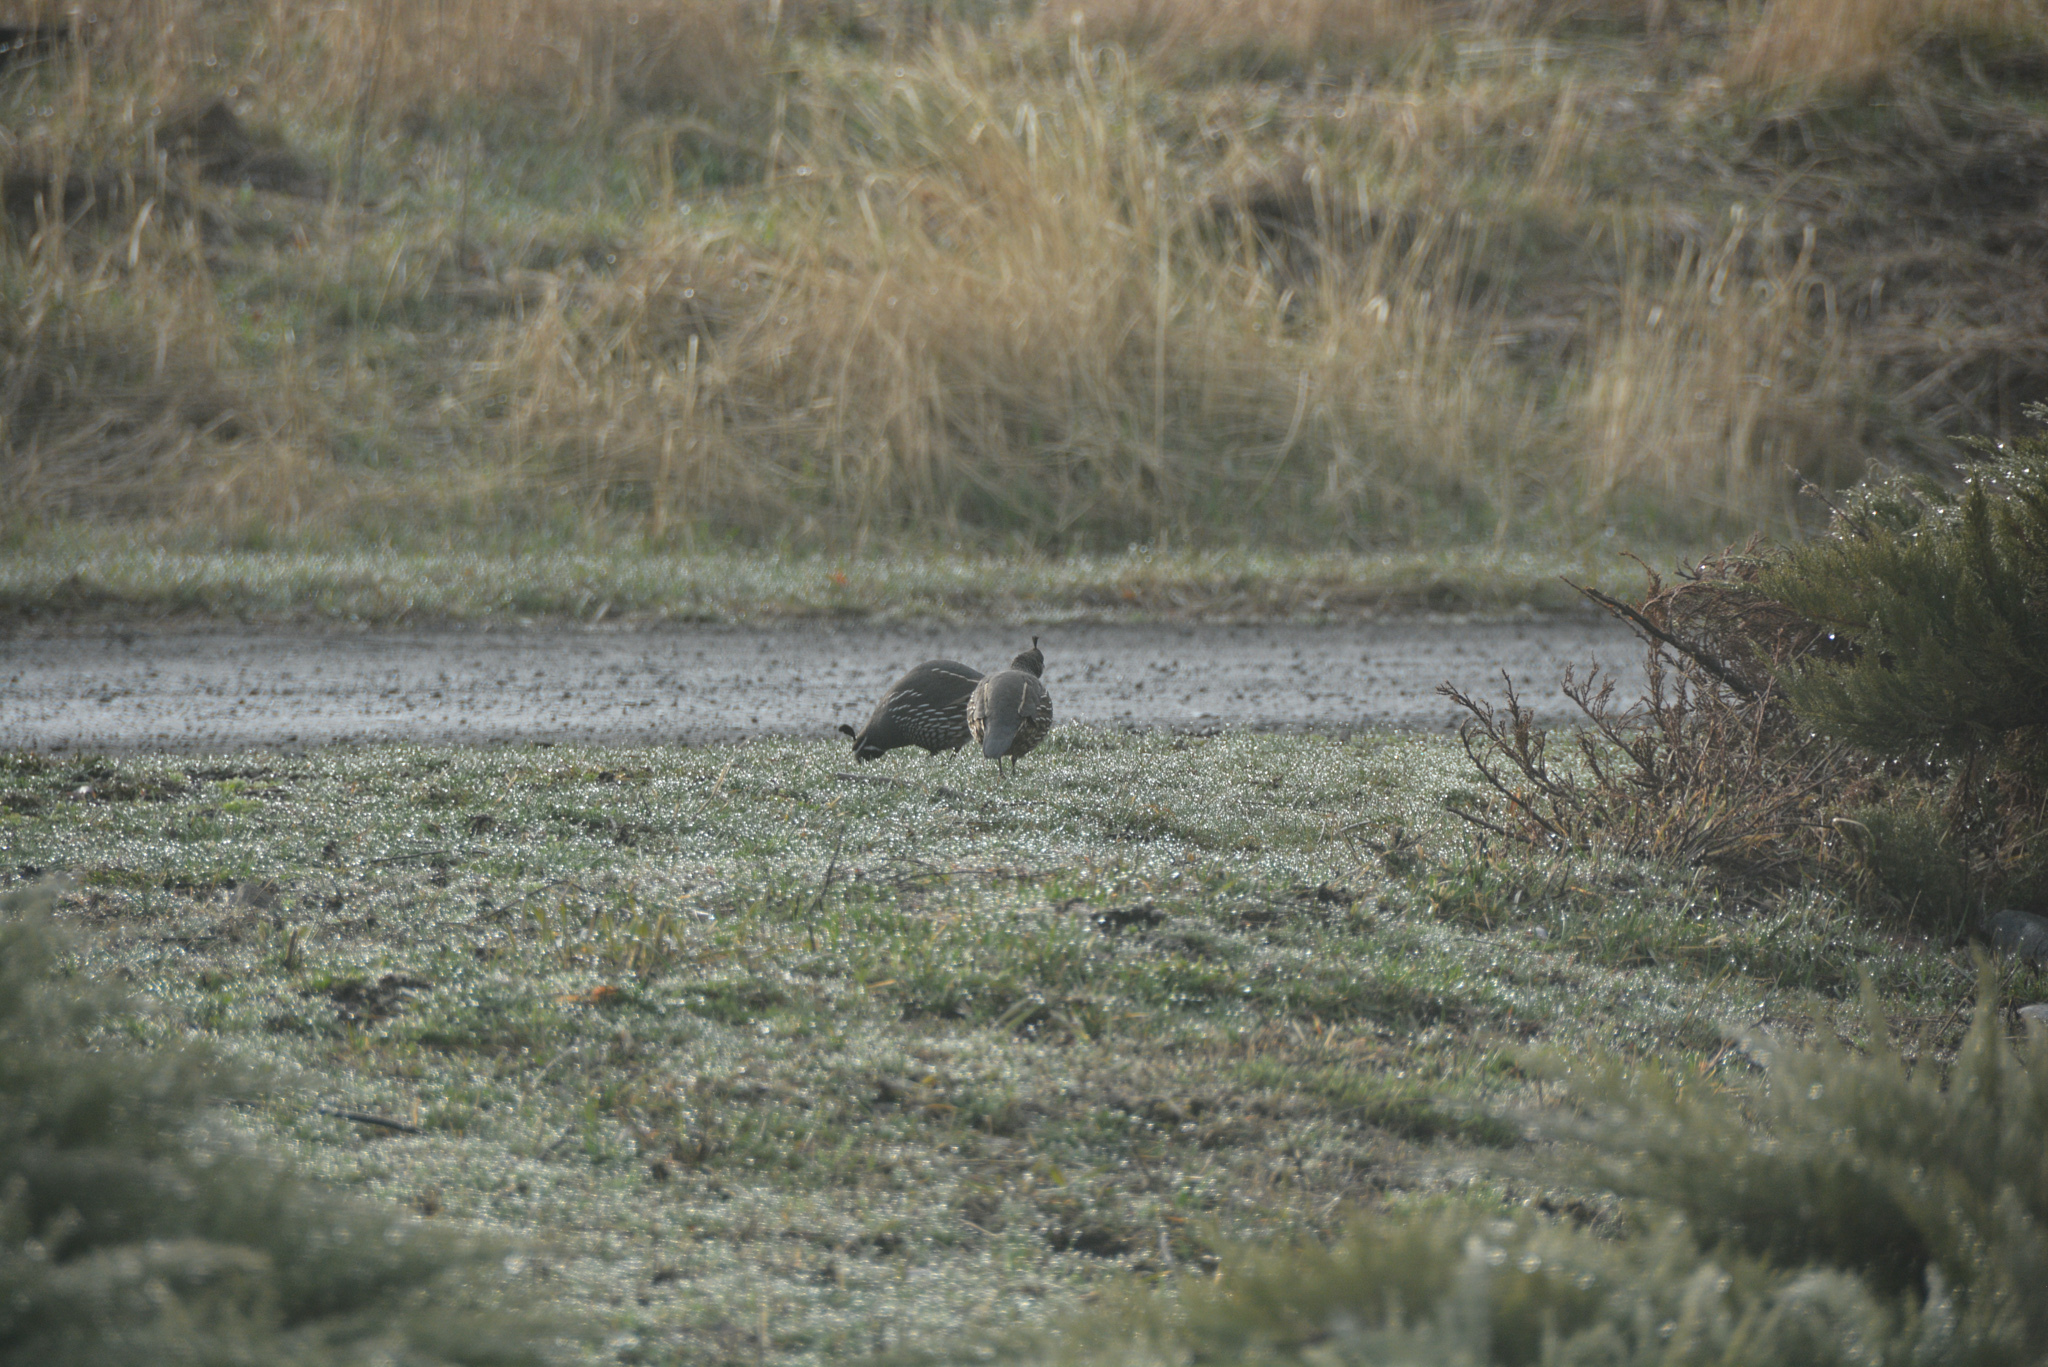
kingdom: Animalia
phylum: Chordata
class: Aves
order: Galliformes
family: Odontophoridae
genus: Callipepla
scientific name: Callipepla californica
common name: California quail
